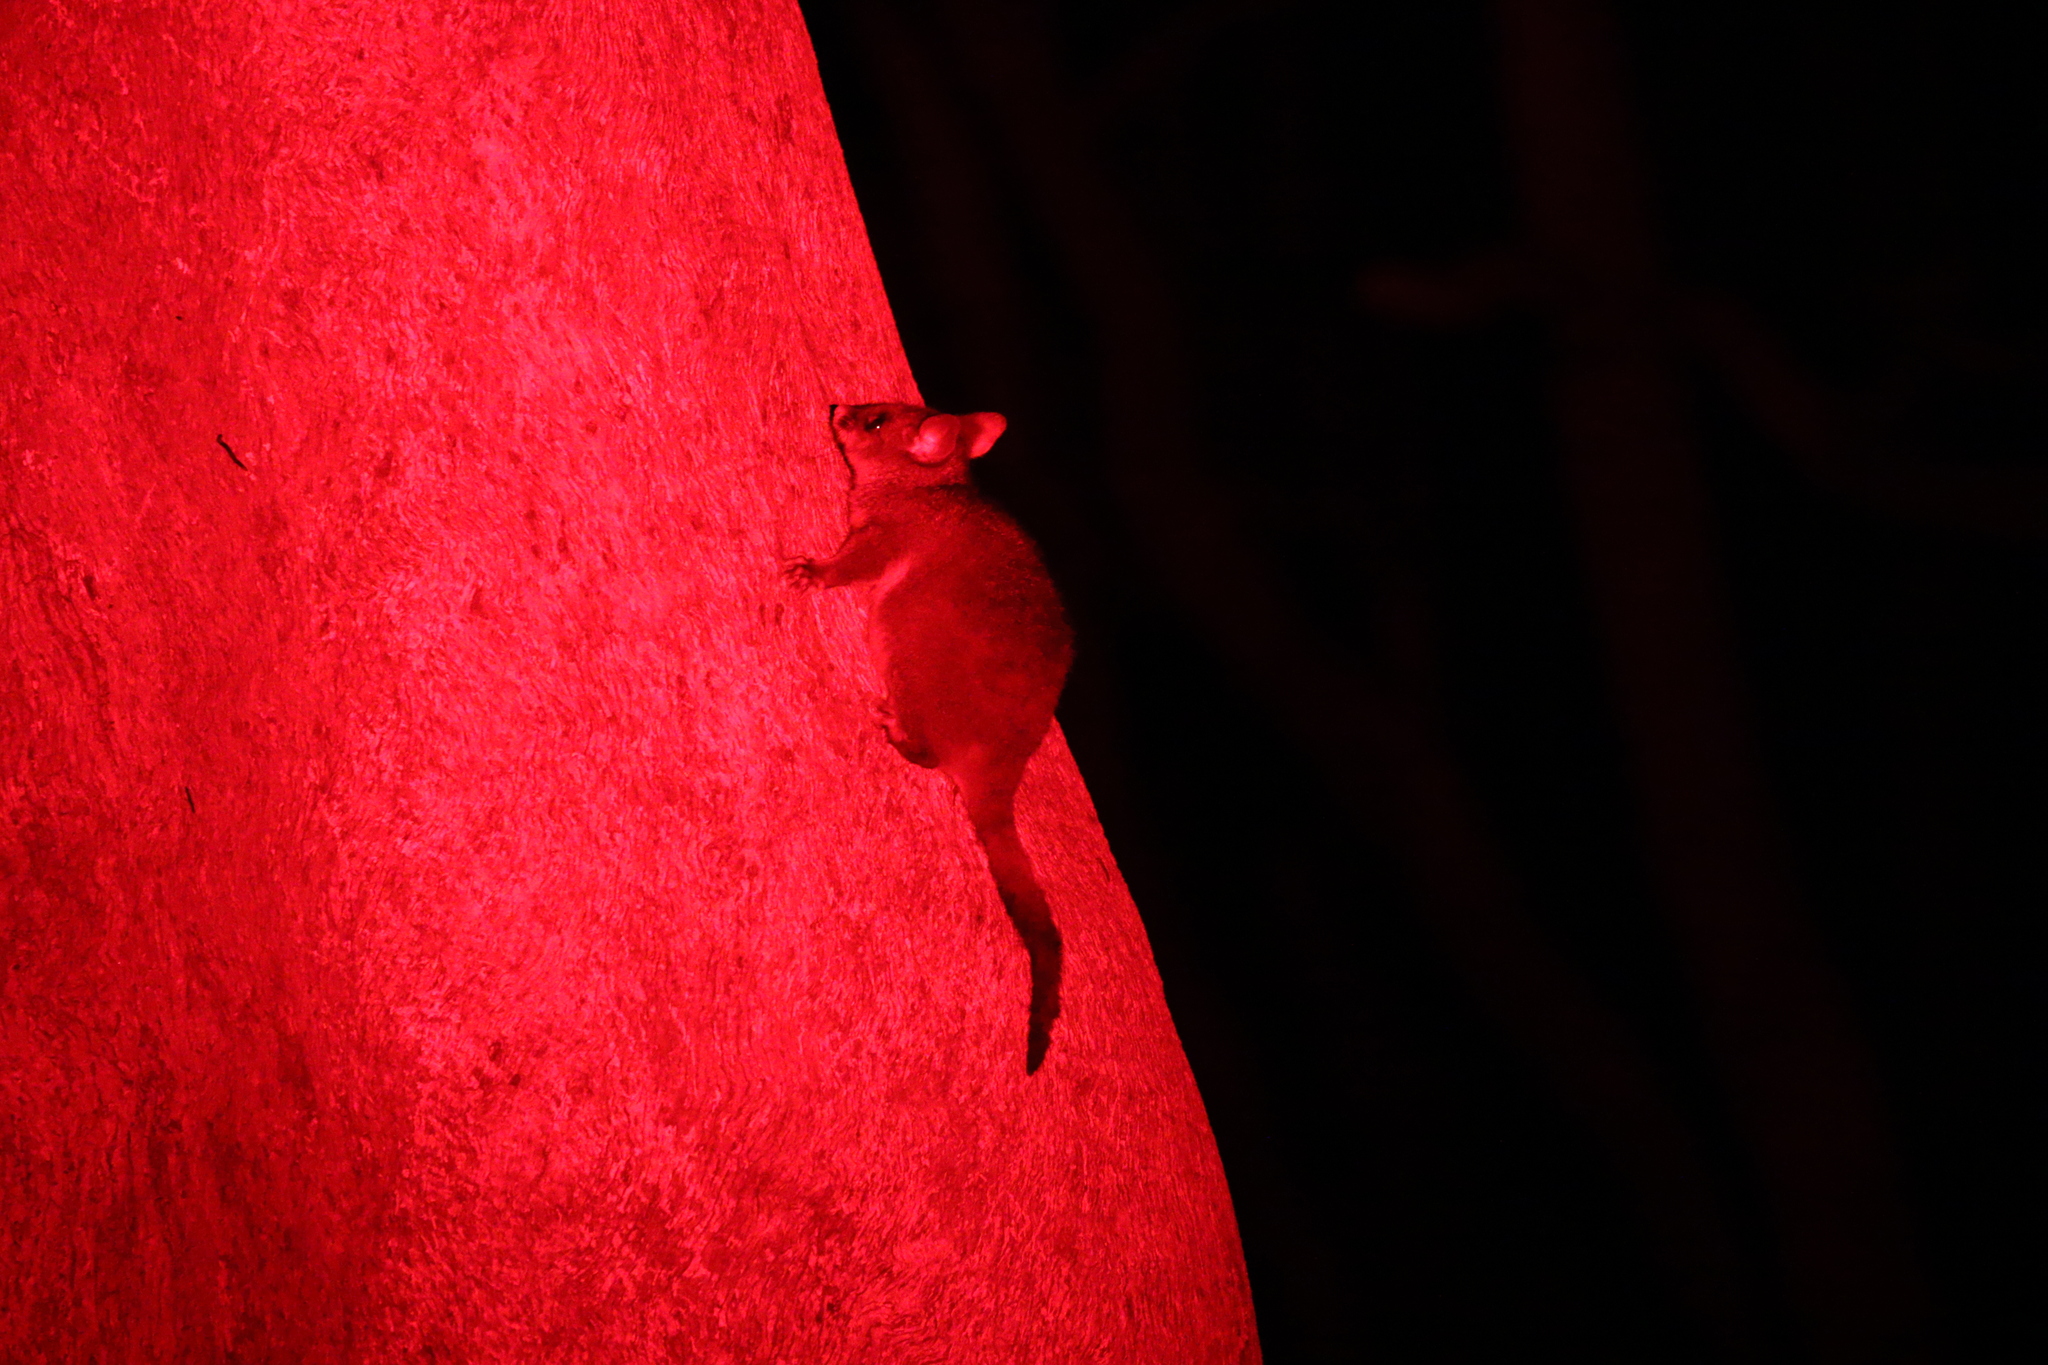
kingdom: Animalia
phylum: Chordata
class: Mammalia
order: Diprotodontia
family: Phalangeridae
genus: Trichosurus
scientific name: Trichosurus vulpecula
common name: Common brushtail
